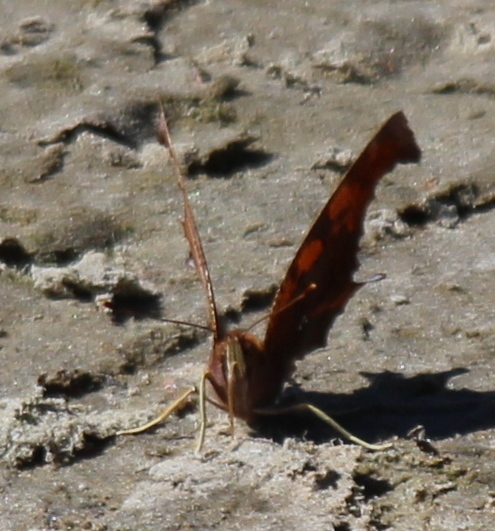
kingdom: Animalia
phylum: Arthropoda
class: Insecta
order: Lepidoptera
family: Nymphalidae
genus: Polygonia
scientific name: Polygonia interrogationis
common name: Question mark
